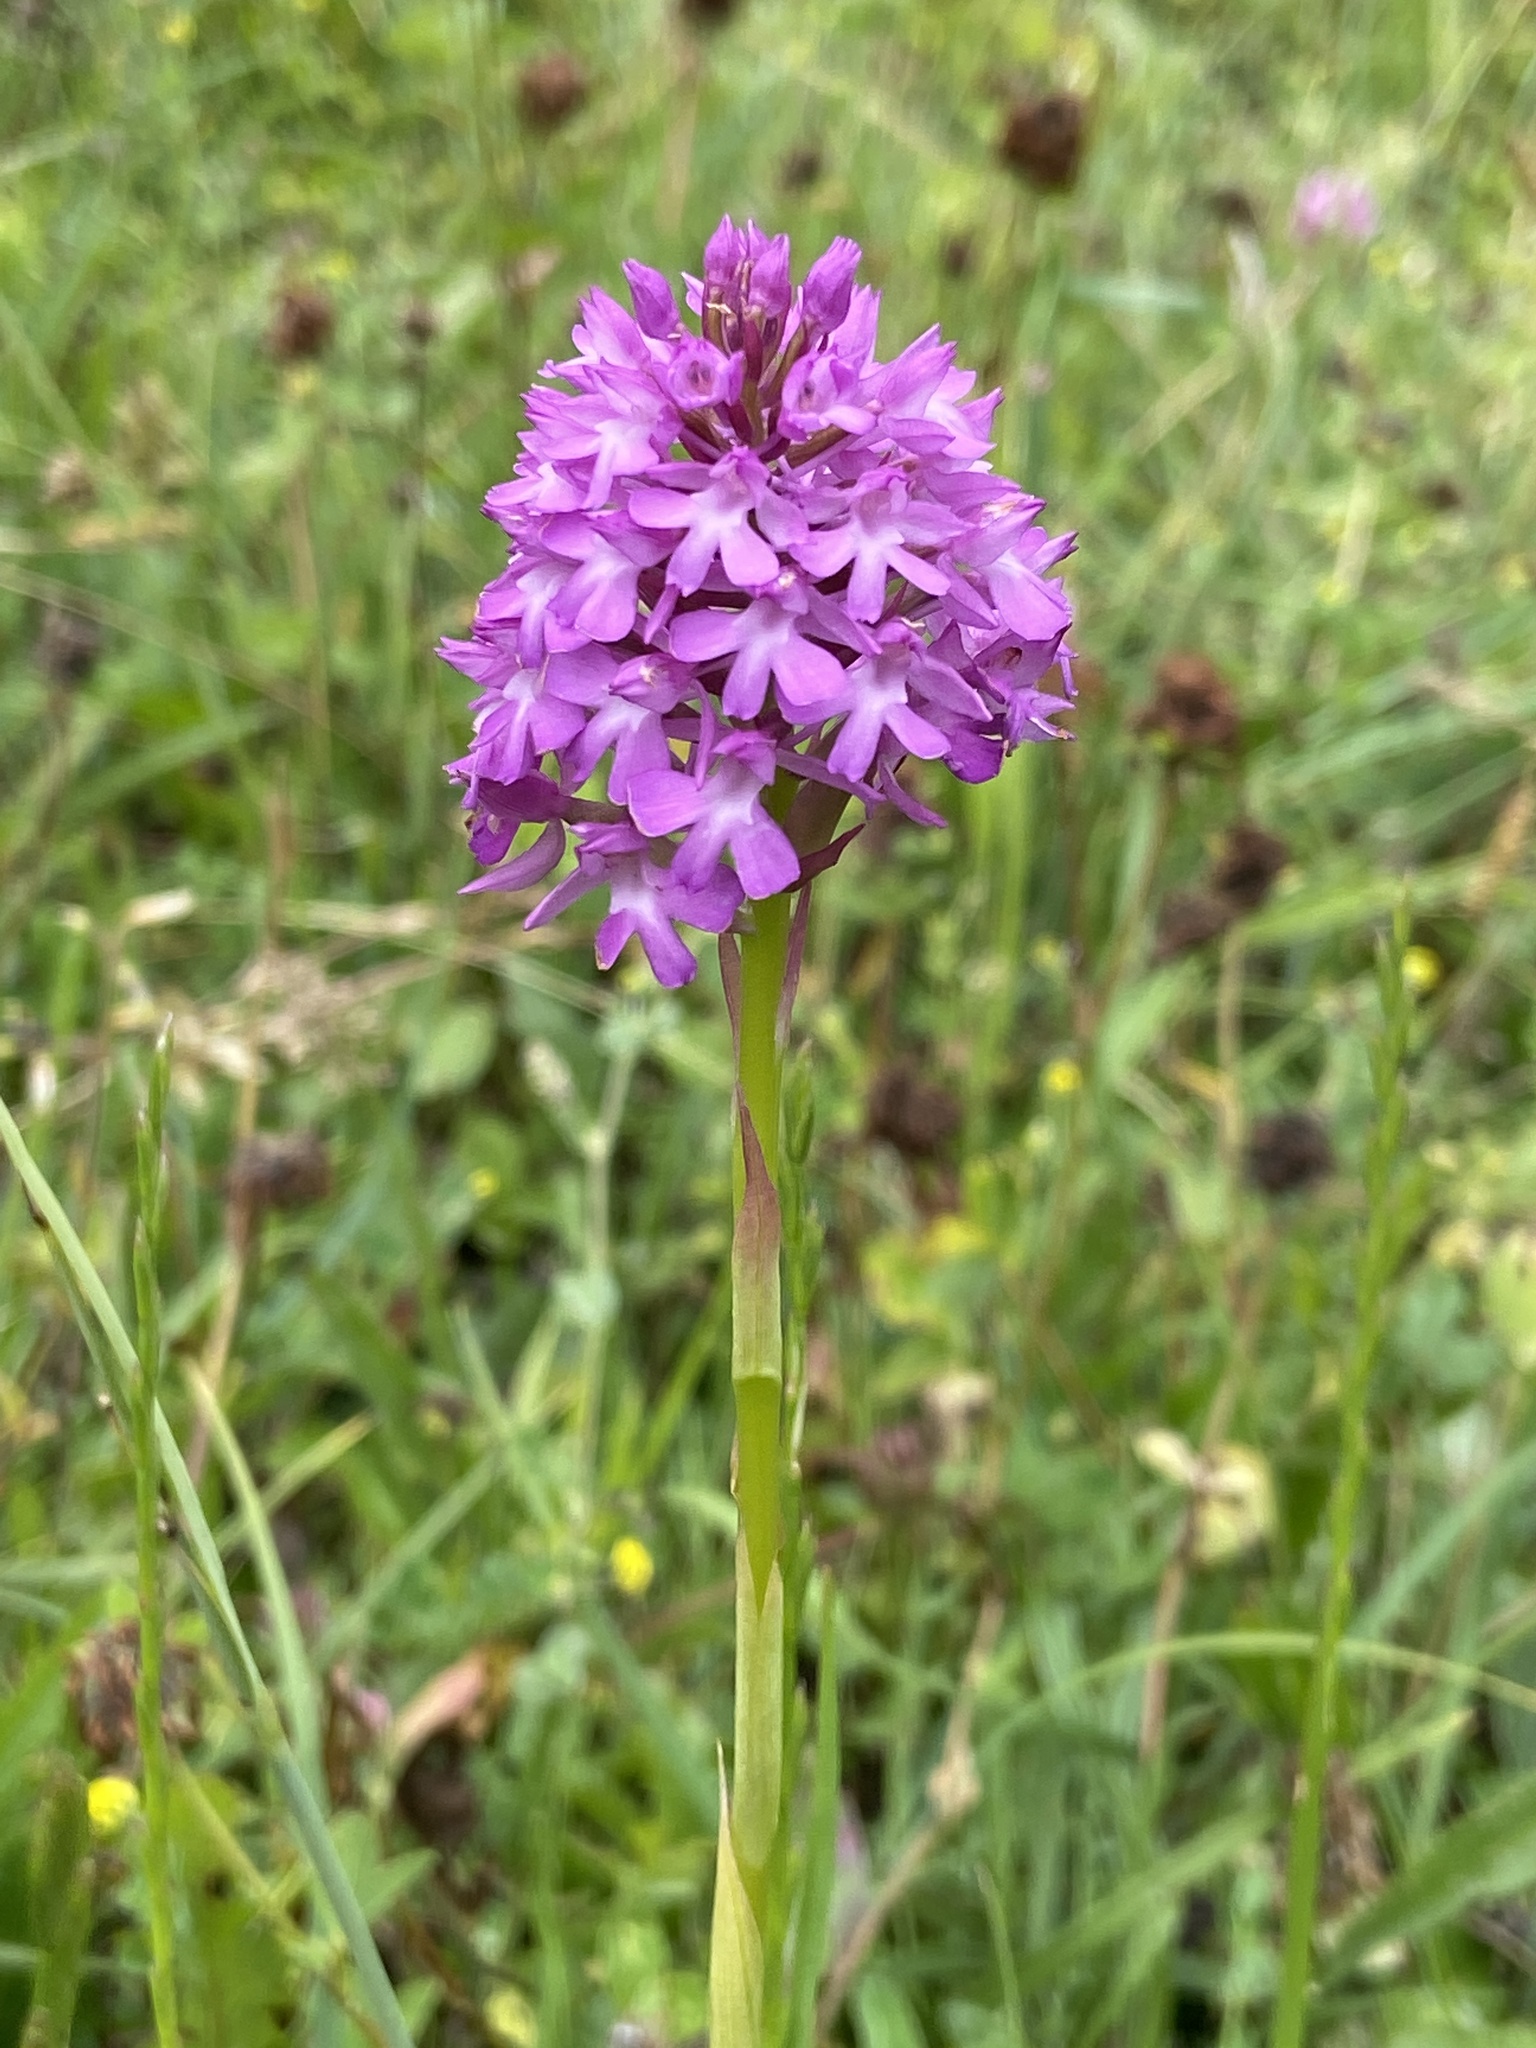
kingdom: Plantae
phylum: Tracheophyta
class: Liliopsida
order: Asparagales
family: Orchidaceae
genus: Anacamptis
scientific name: Anacamptis pyramidalis
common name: Pyramidal orchid
